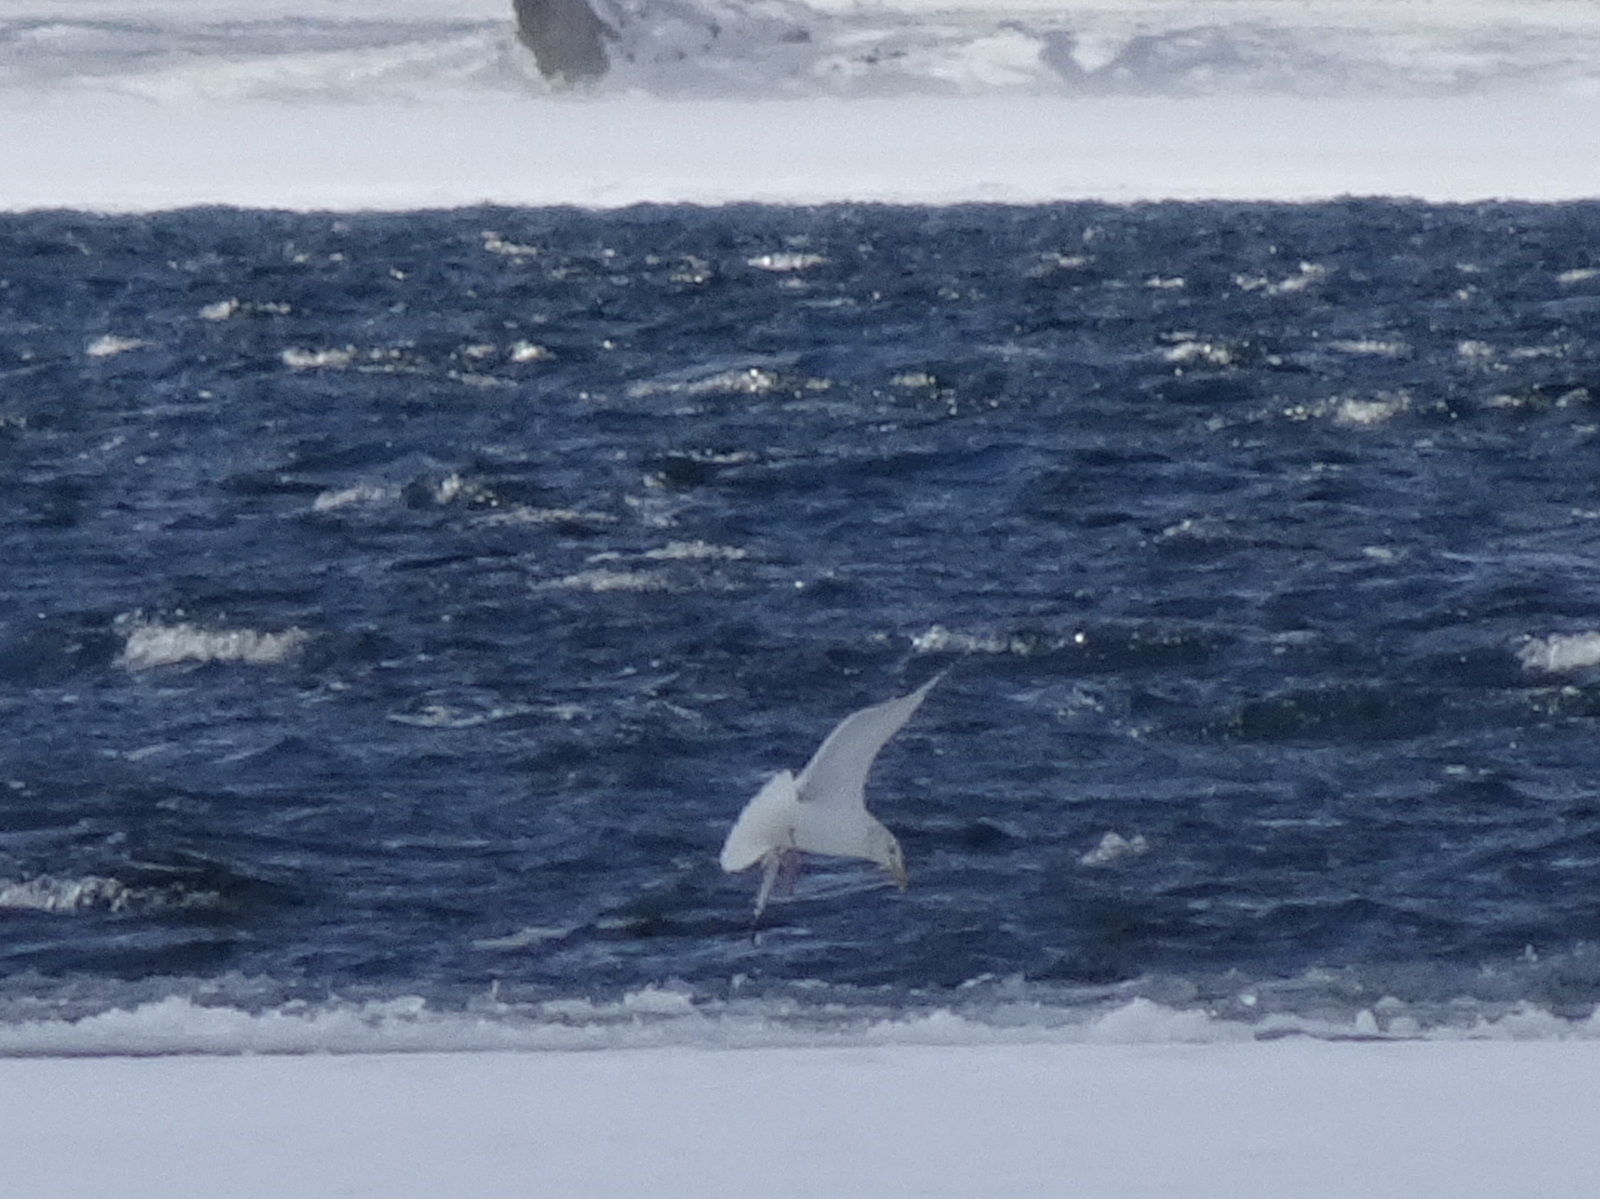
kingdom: Animalia
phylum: Chordata
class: Aves
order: Charadriiformes
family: Laridae
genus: Larus
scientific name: Larus argentatus
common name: Herring gull
